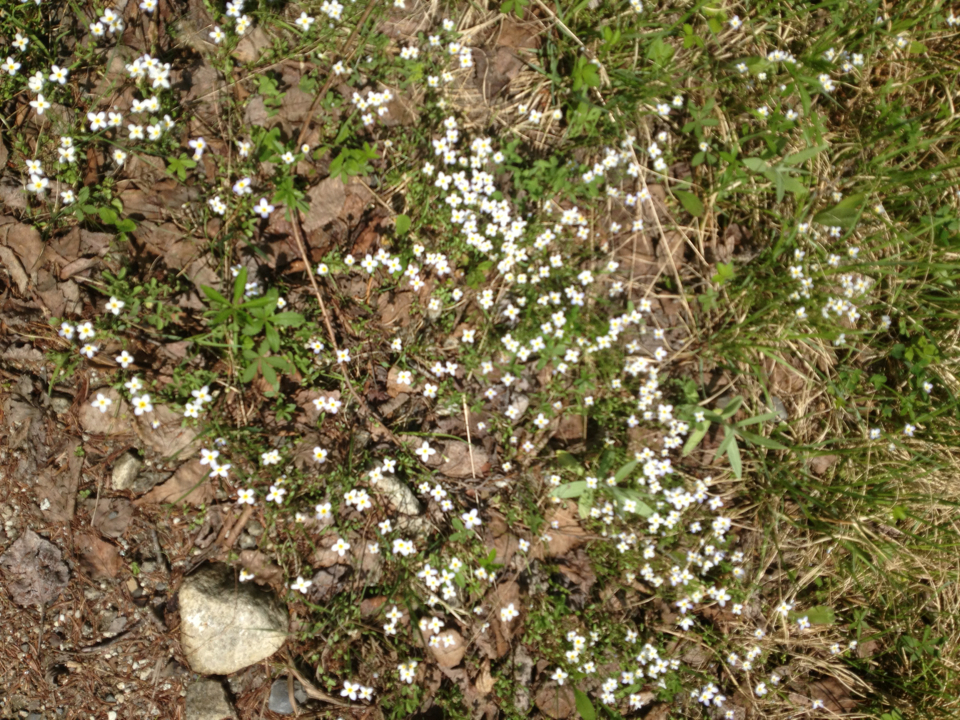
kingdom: Plantae
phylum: Tracheophyta
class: Magnoliopsida
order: Gentianales
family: Rubiaceae
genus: Houstonia
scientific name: Houstonia caerulea
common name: Bluets
